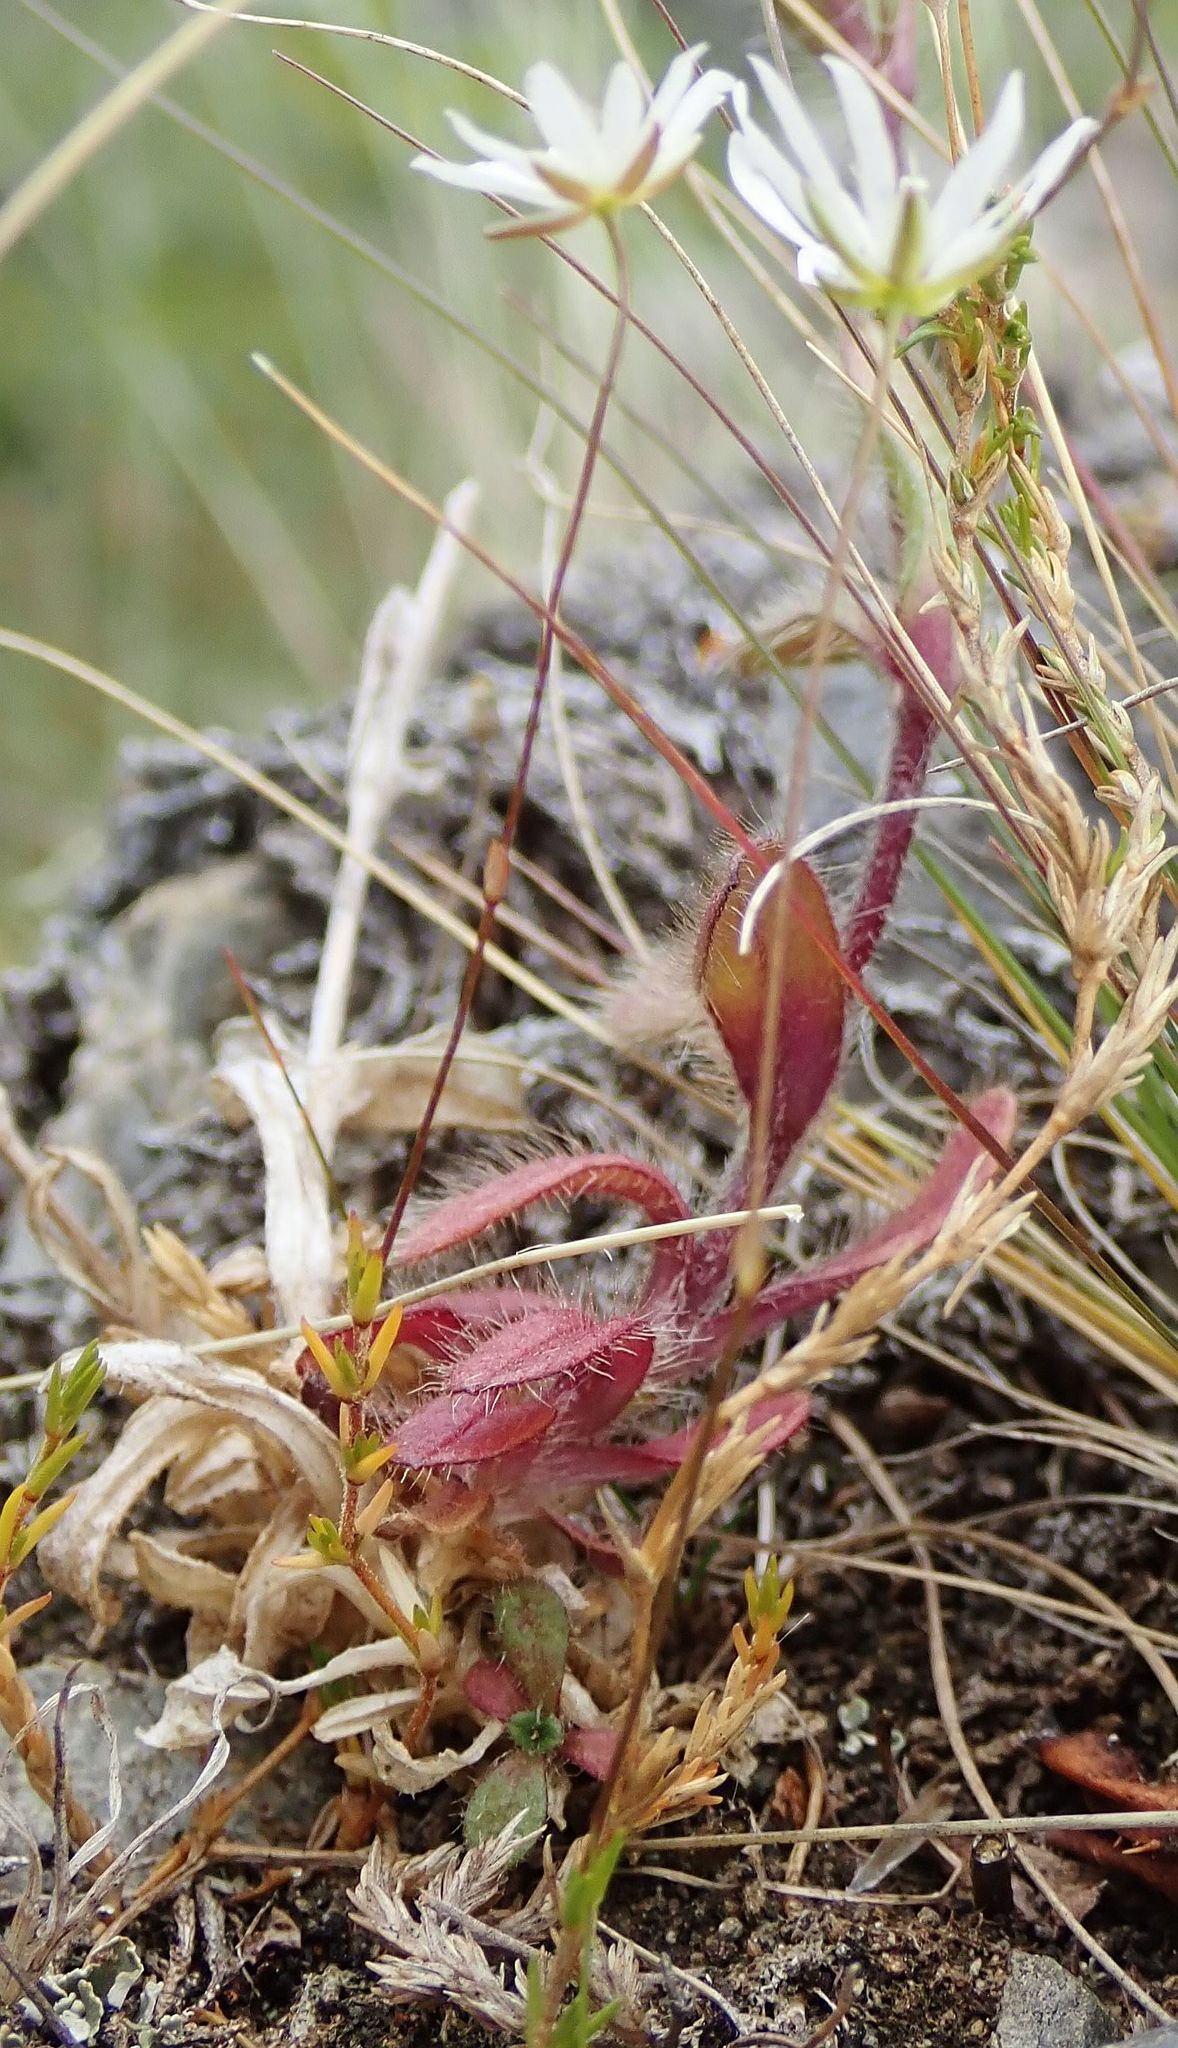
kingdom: Plantae
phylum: Tracheophyta
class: Magnoliopsida
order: Caryophyllales
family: Caryophyllaceae
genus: Stellaria
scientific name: Stellaria gracilenta
